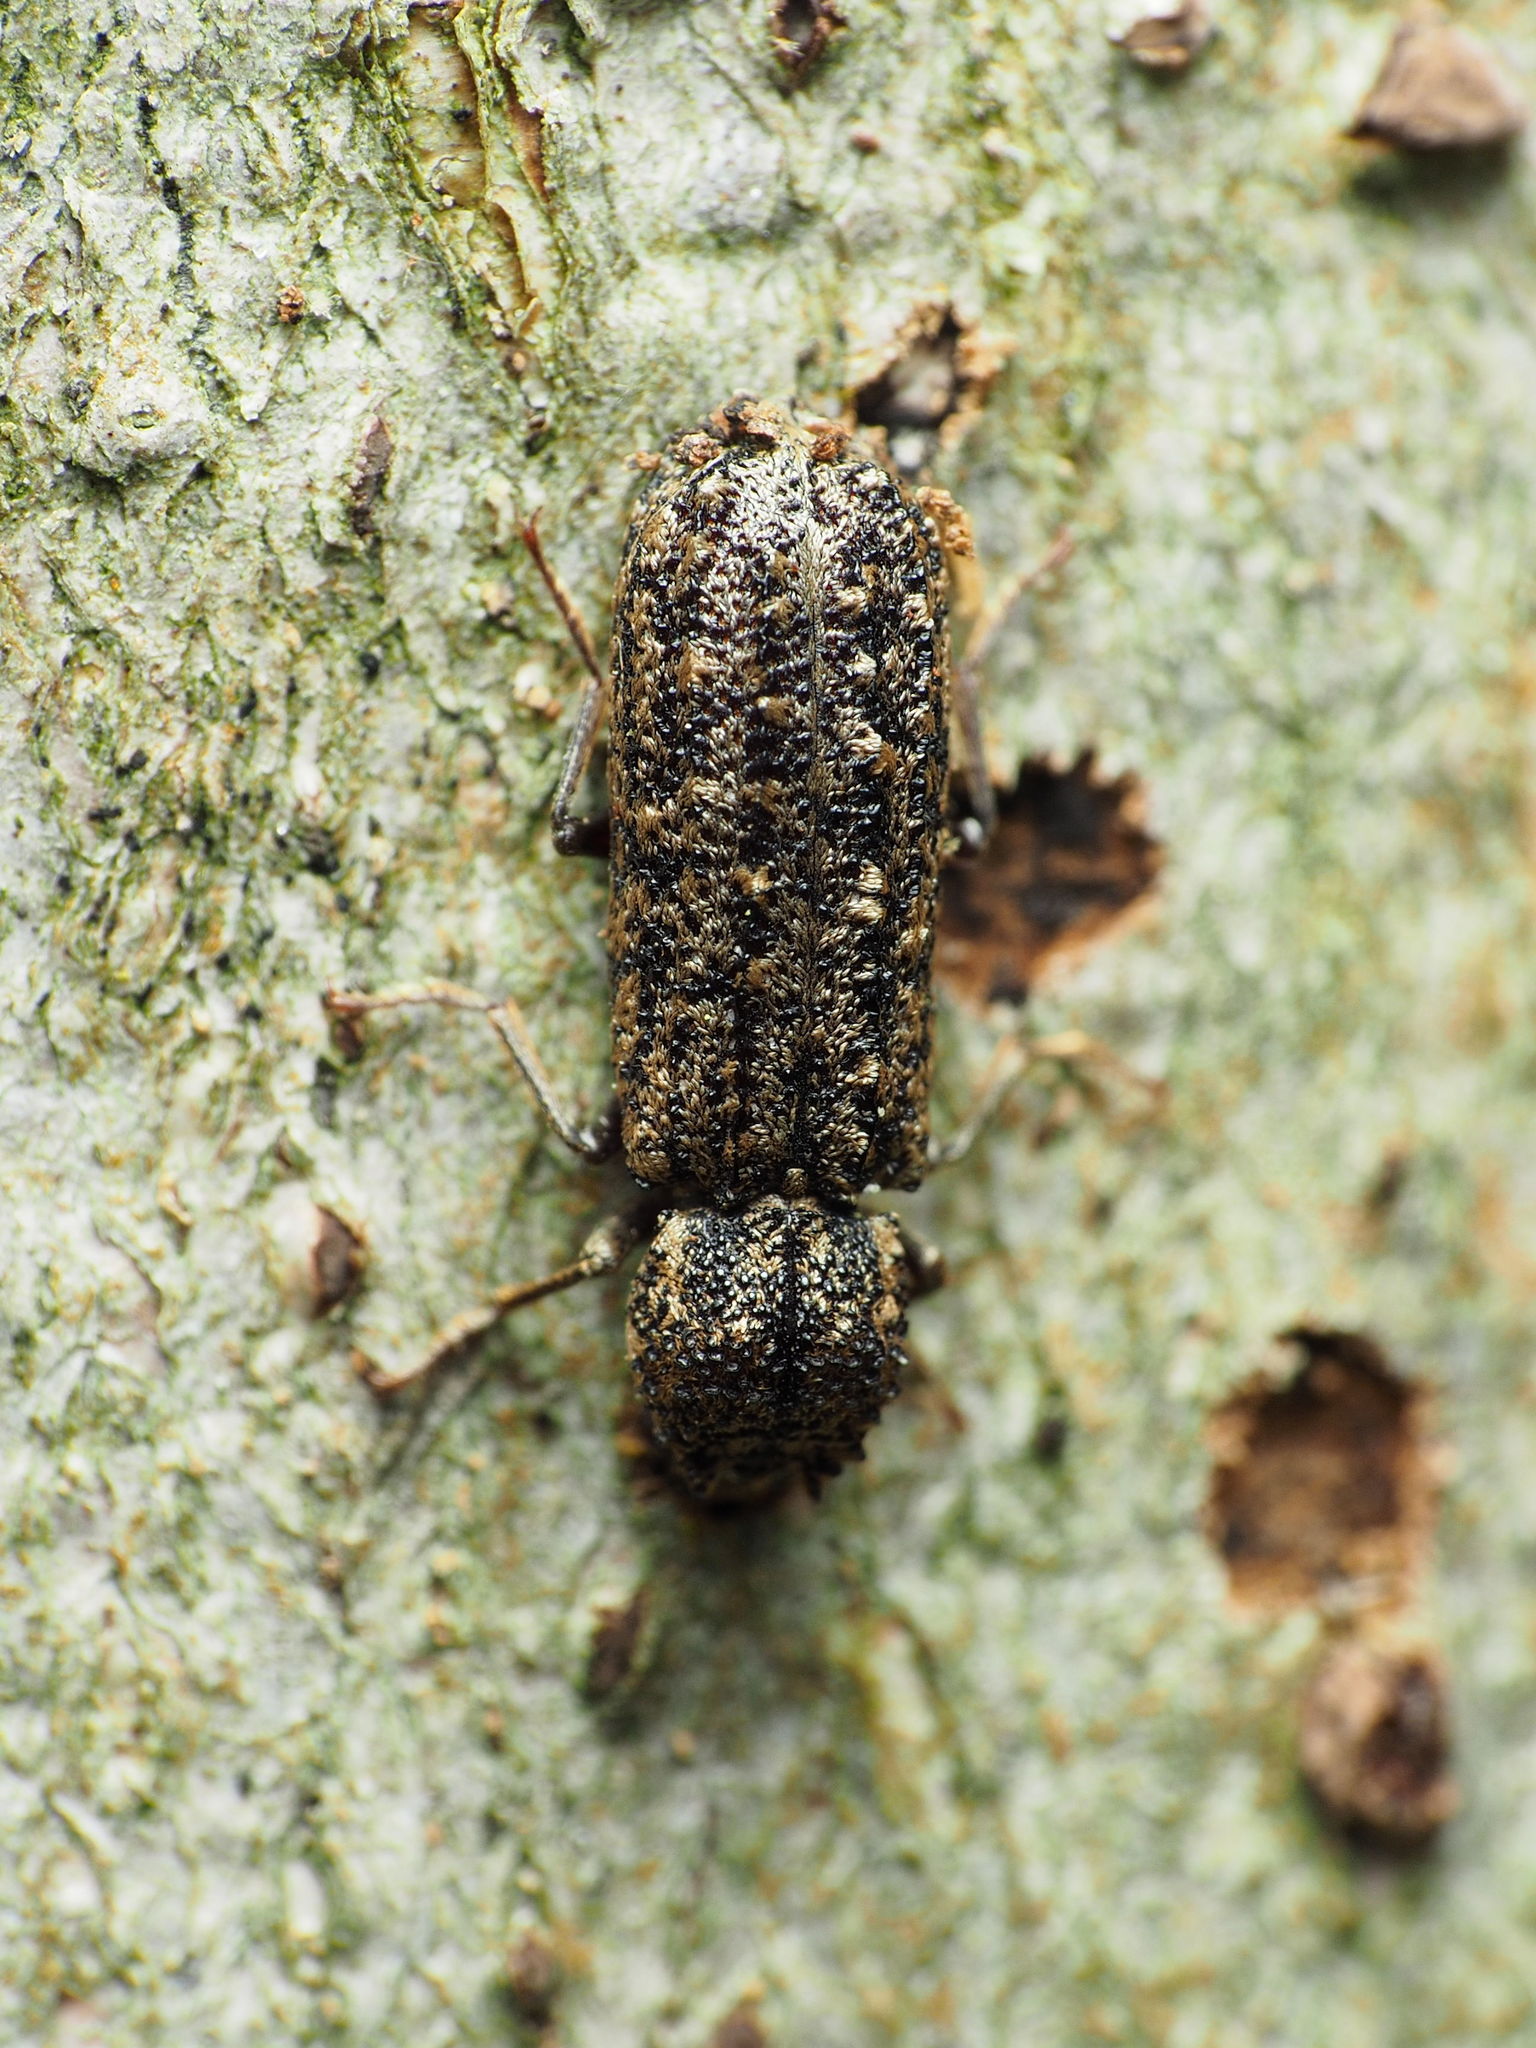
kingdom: Animalia
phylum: Arthropoda
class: Insecta
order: Coleoptera
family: Bostrichidae
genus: Lichenophanes
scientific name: Lichenophanes bicornis
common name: Two-horned powder-post beetle
